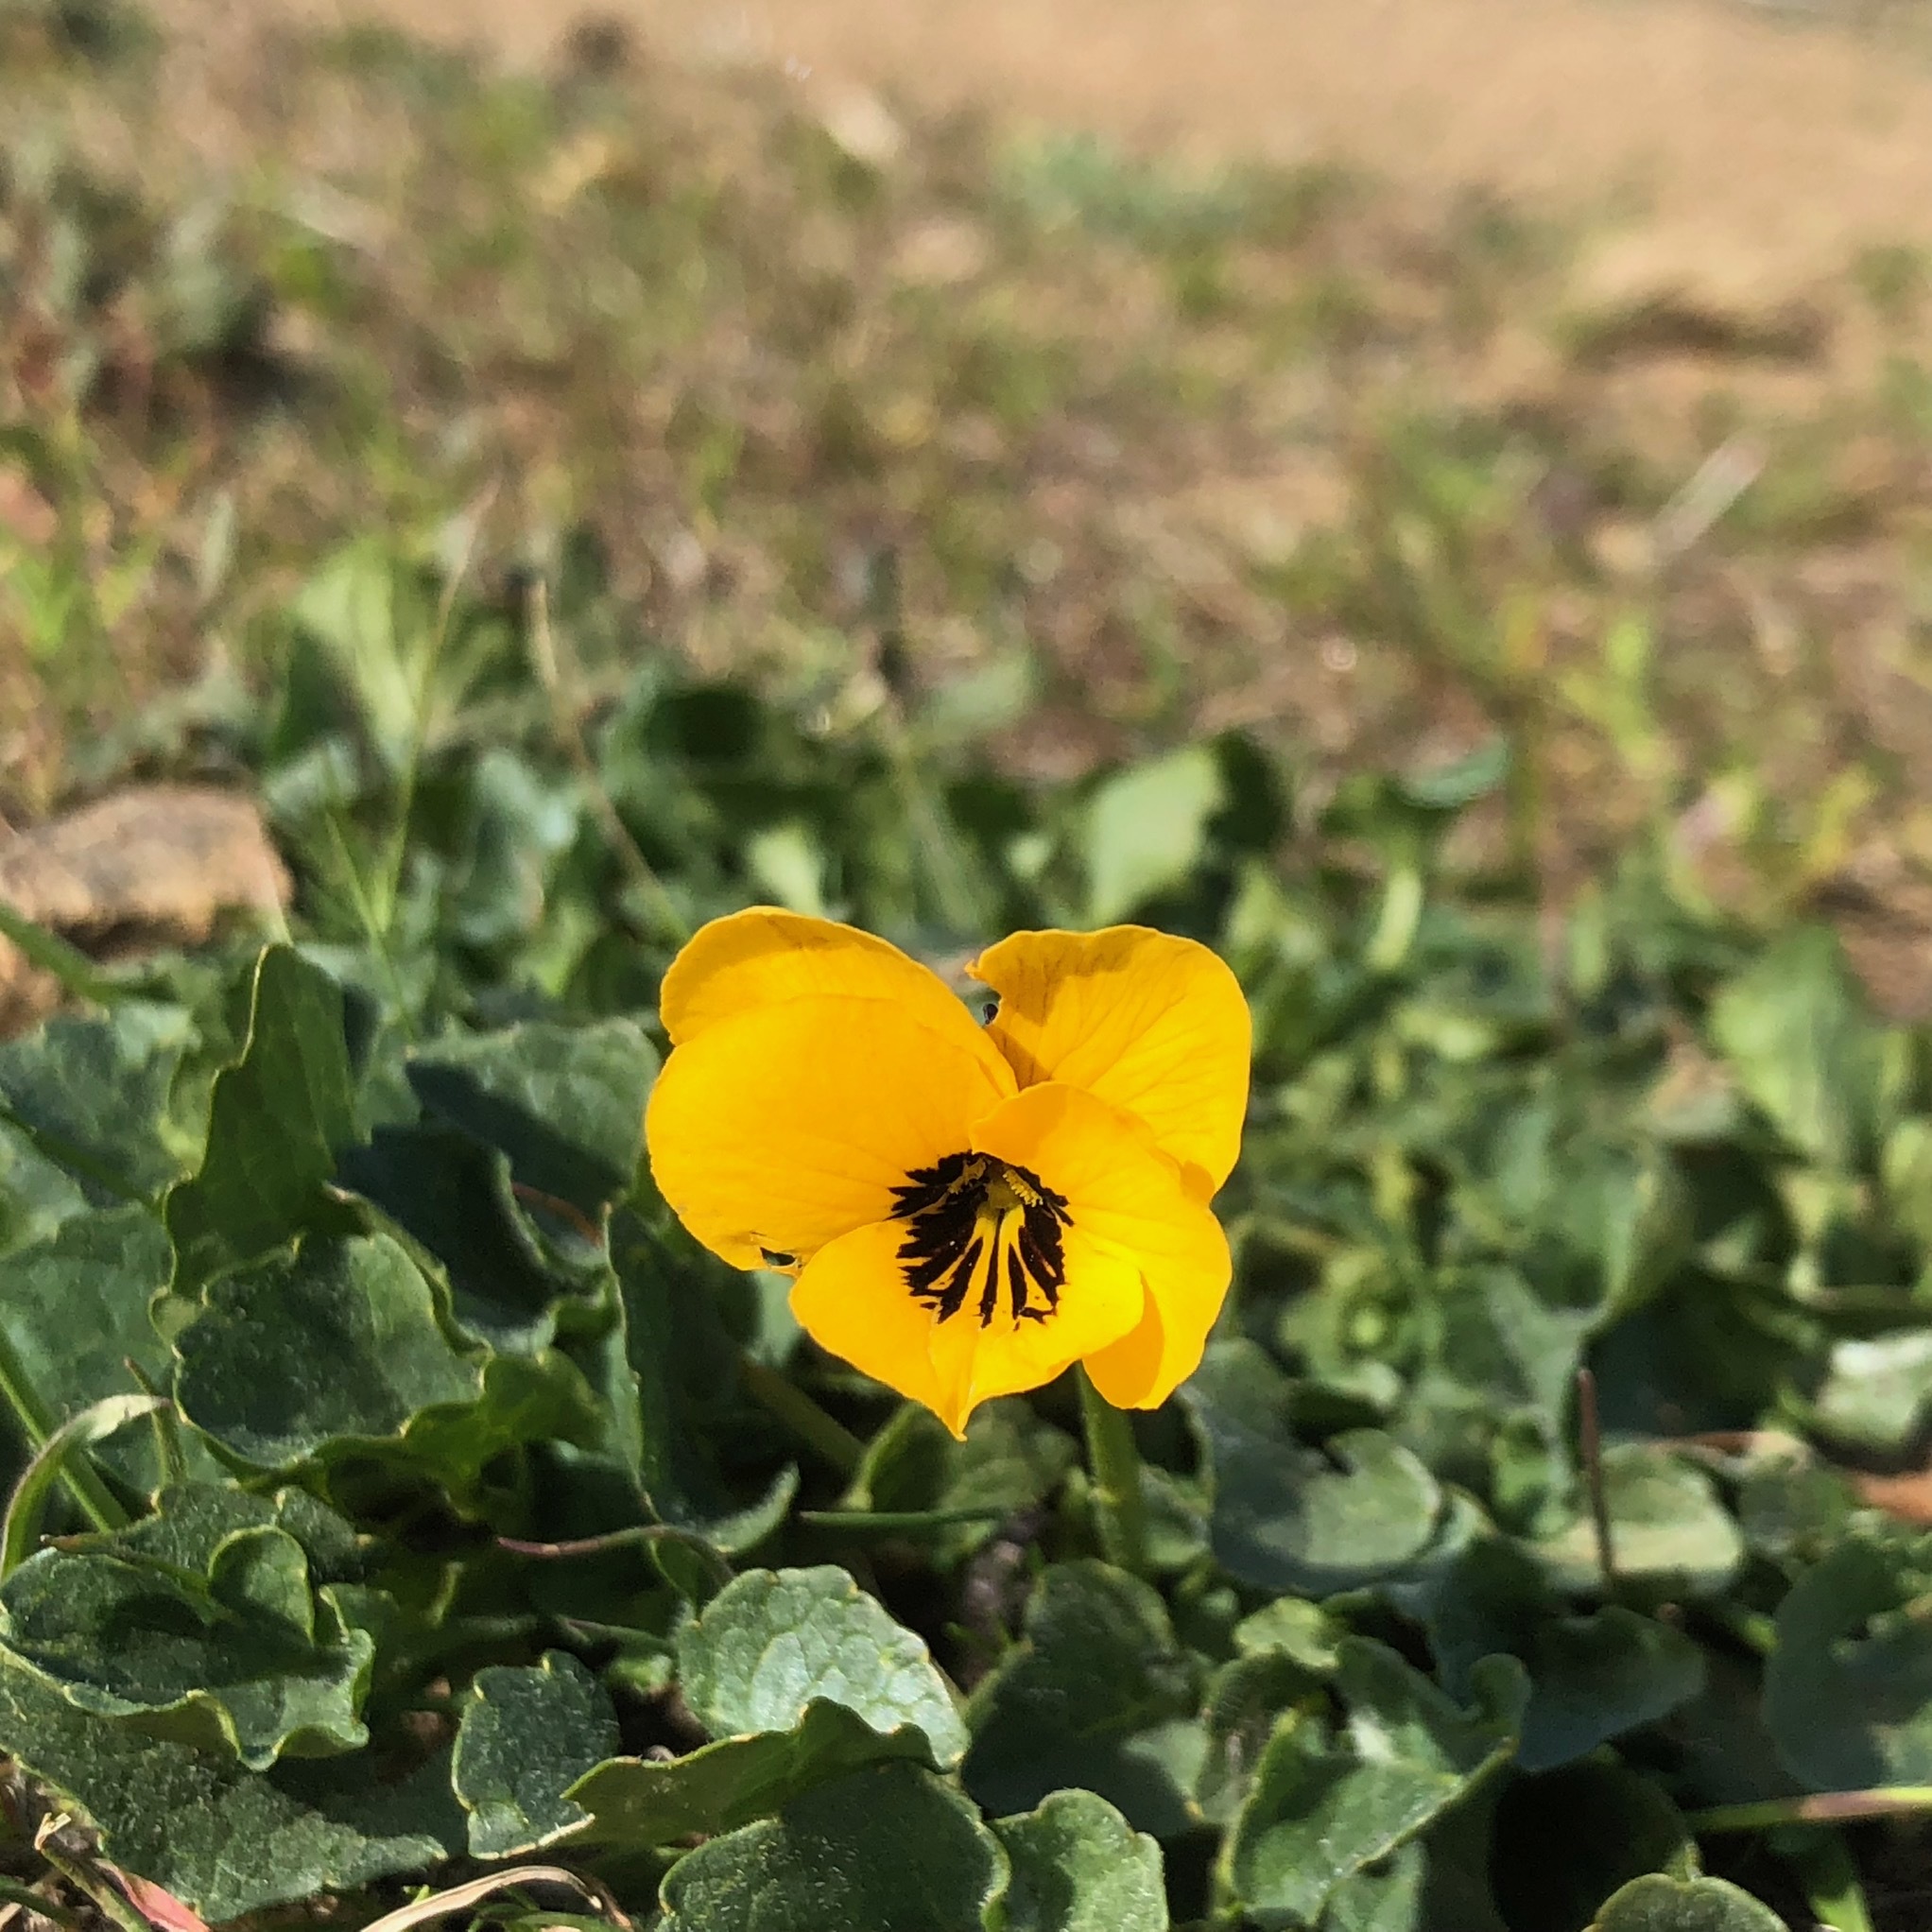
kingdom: Plantae
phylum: Tracheophyta
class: Magnoliopsida
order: Malpighiales
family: Violaceae
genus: Viola
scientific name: Viola pedunculata
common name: California golden violet
